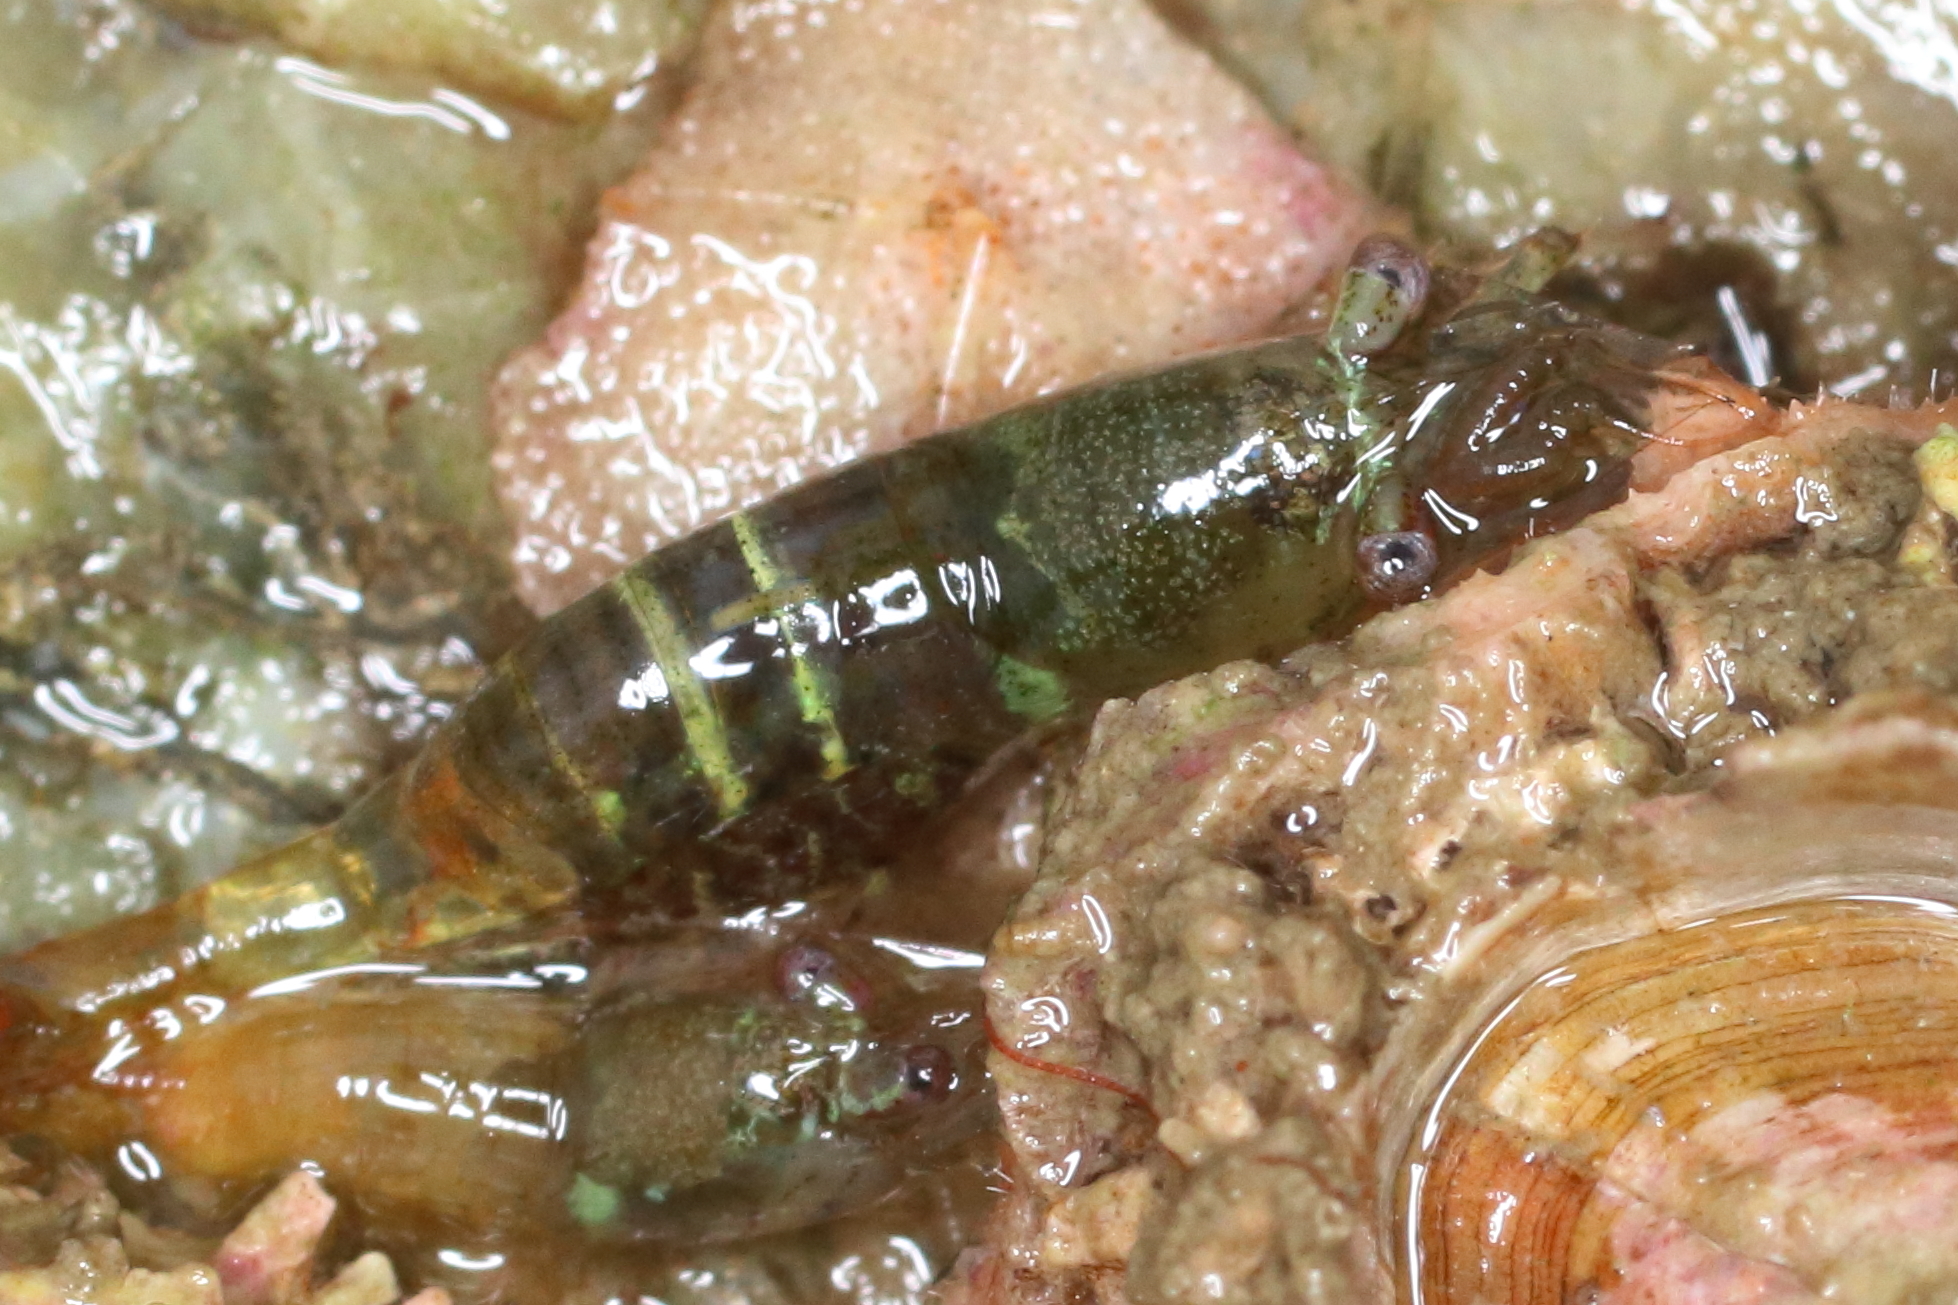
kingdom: Animalia
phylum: Arthropoda
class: Malacostraca
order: Decapoda
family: Thoridae
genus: Heptacarpus
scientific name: Heptacarpus pugettensis
